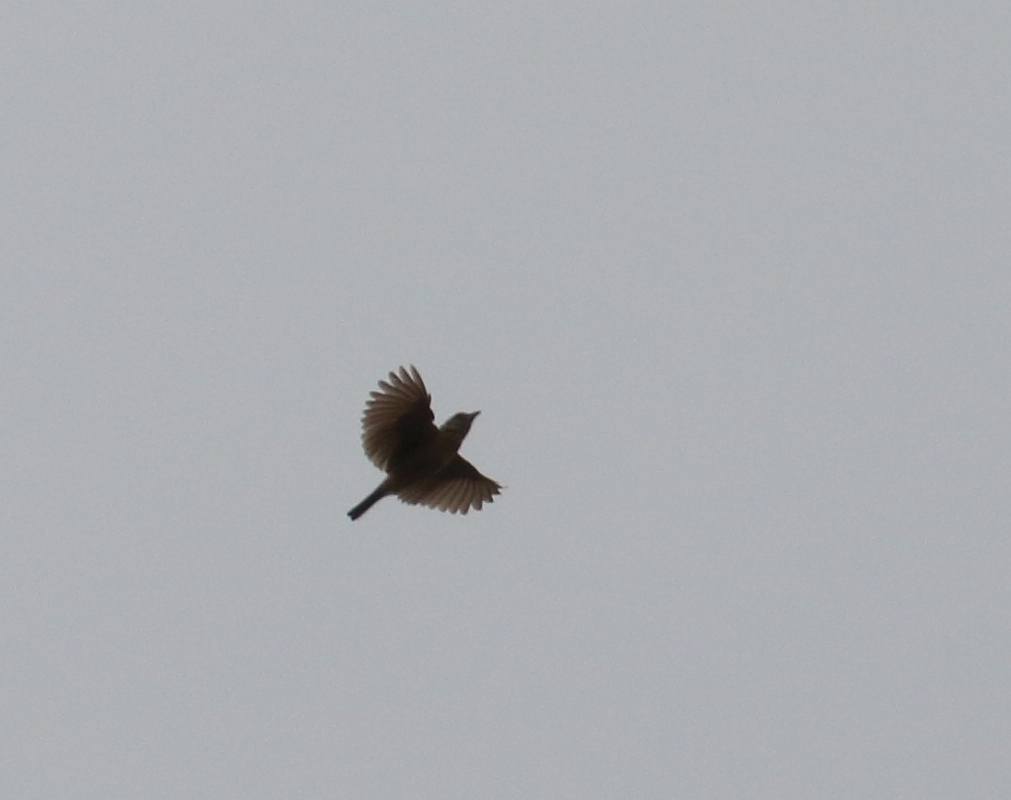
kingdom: Animalia
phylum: Chordata
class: Aves
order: Passeriformes
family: Alaudidae
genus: Mirafra
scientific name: Mirafra rufocinnamomea
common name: Flappet lark
